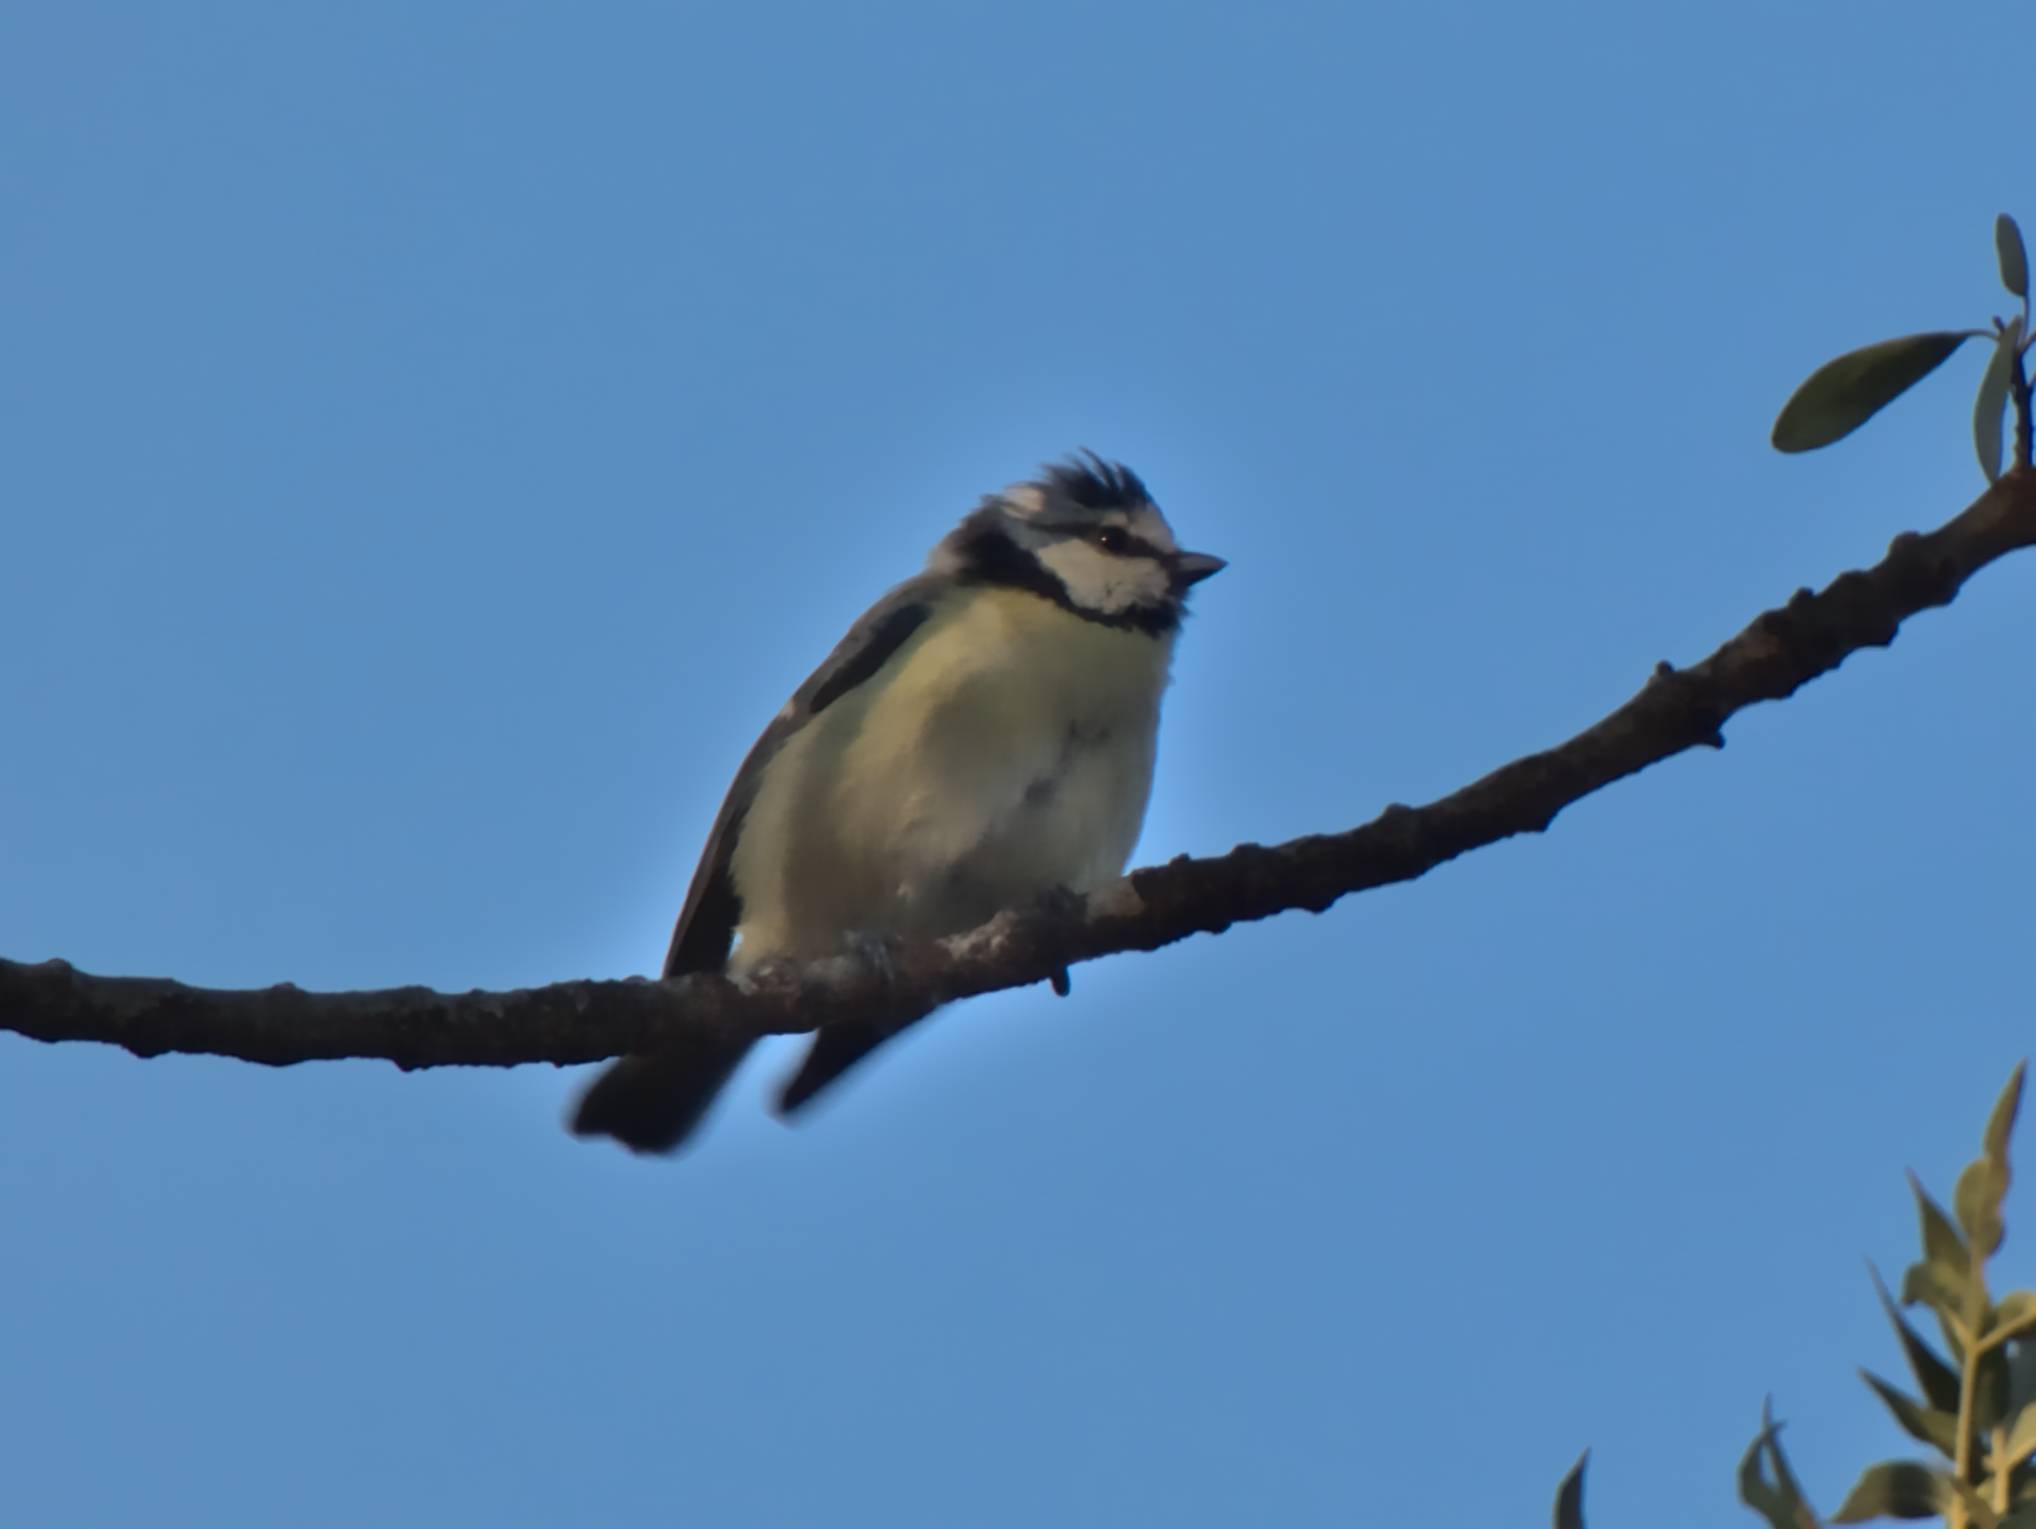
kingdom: Animalia
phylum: Chordata
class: Aves
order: Passeriformes
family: Paridae
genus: Cyanistes
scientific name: Cyanistes caeruleus
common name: Eurasian blue tit
